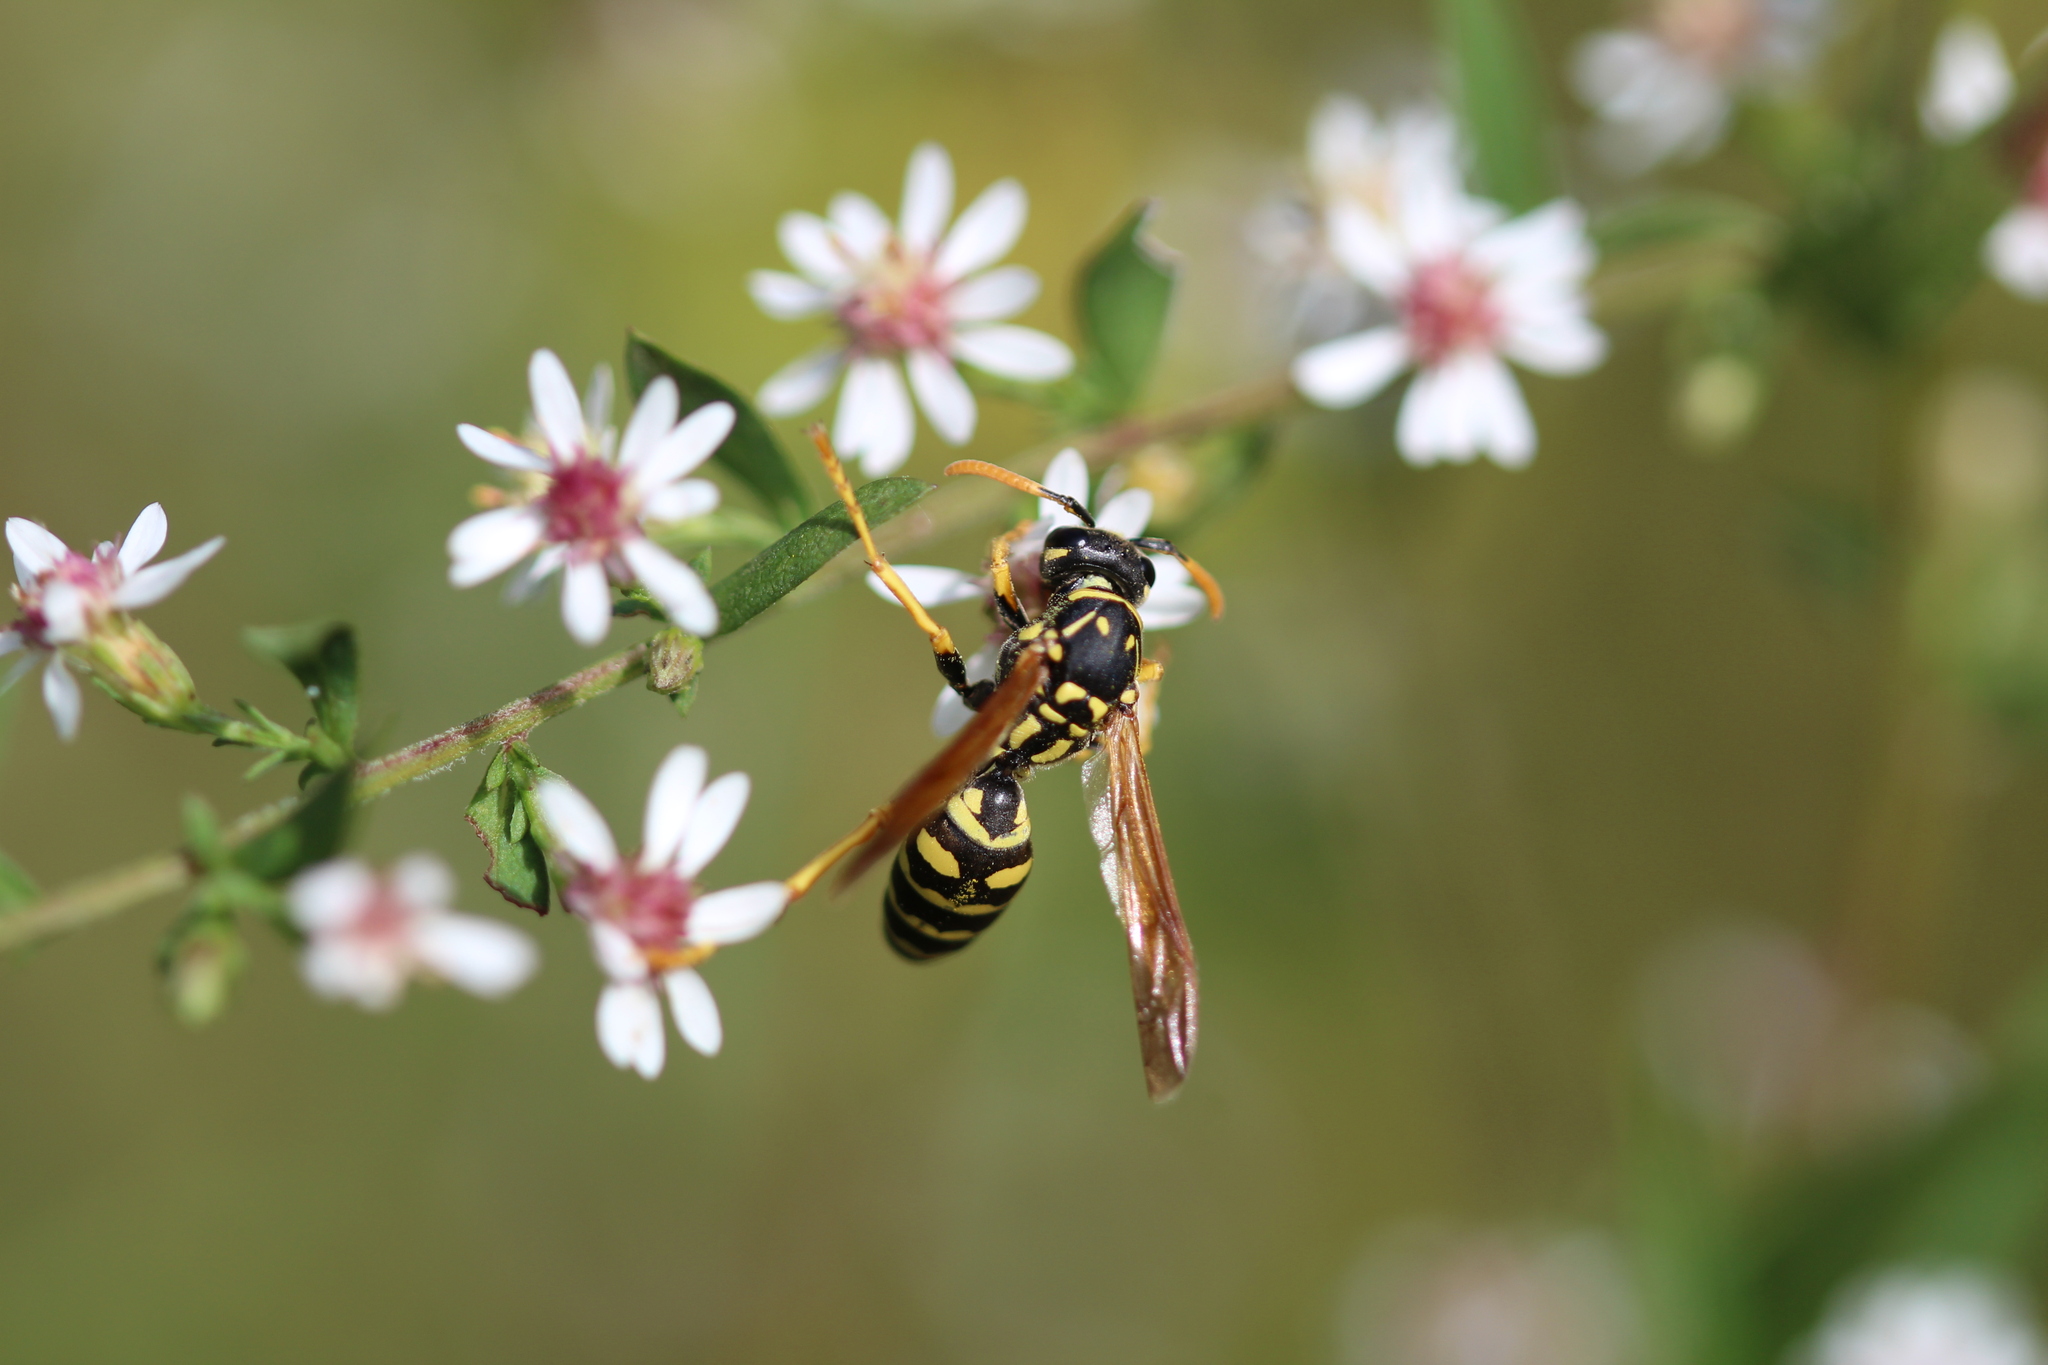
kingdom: Animalia
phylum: Arthropoda
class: Insecta
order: Hymenoptera
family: Eumenidae
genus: Polistes
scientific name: Polistes dominula
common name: Paper wasp
